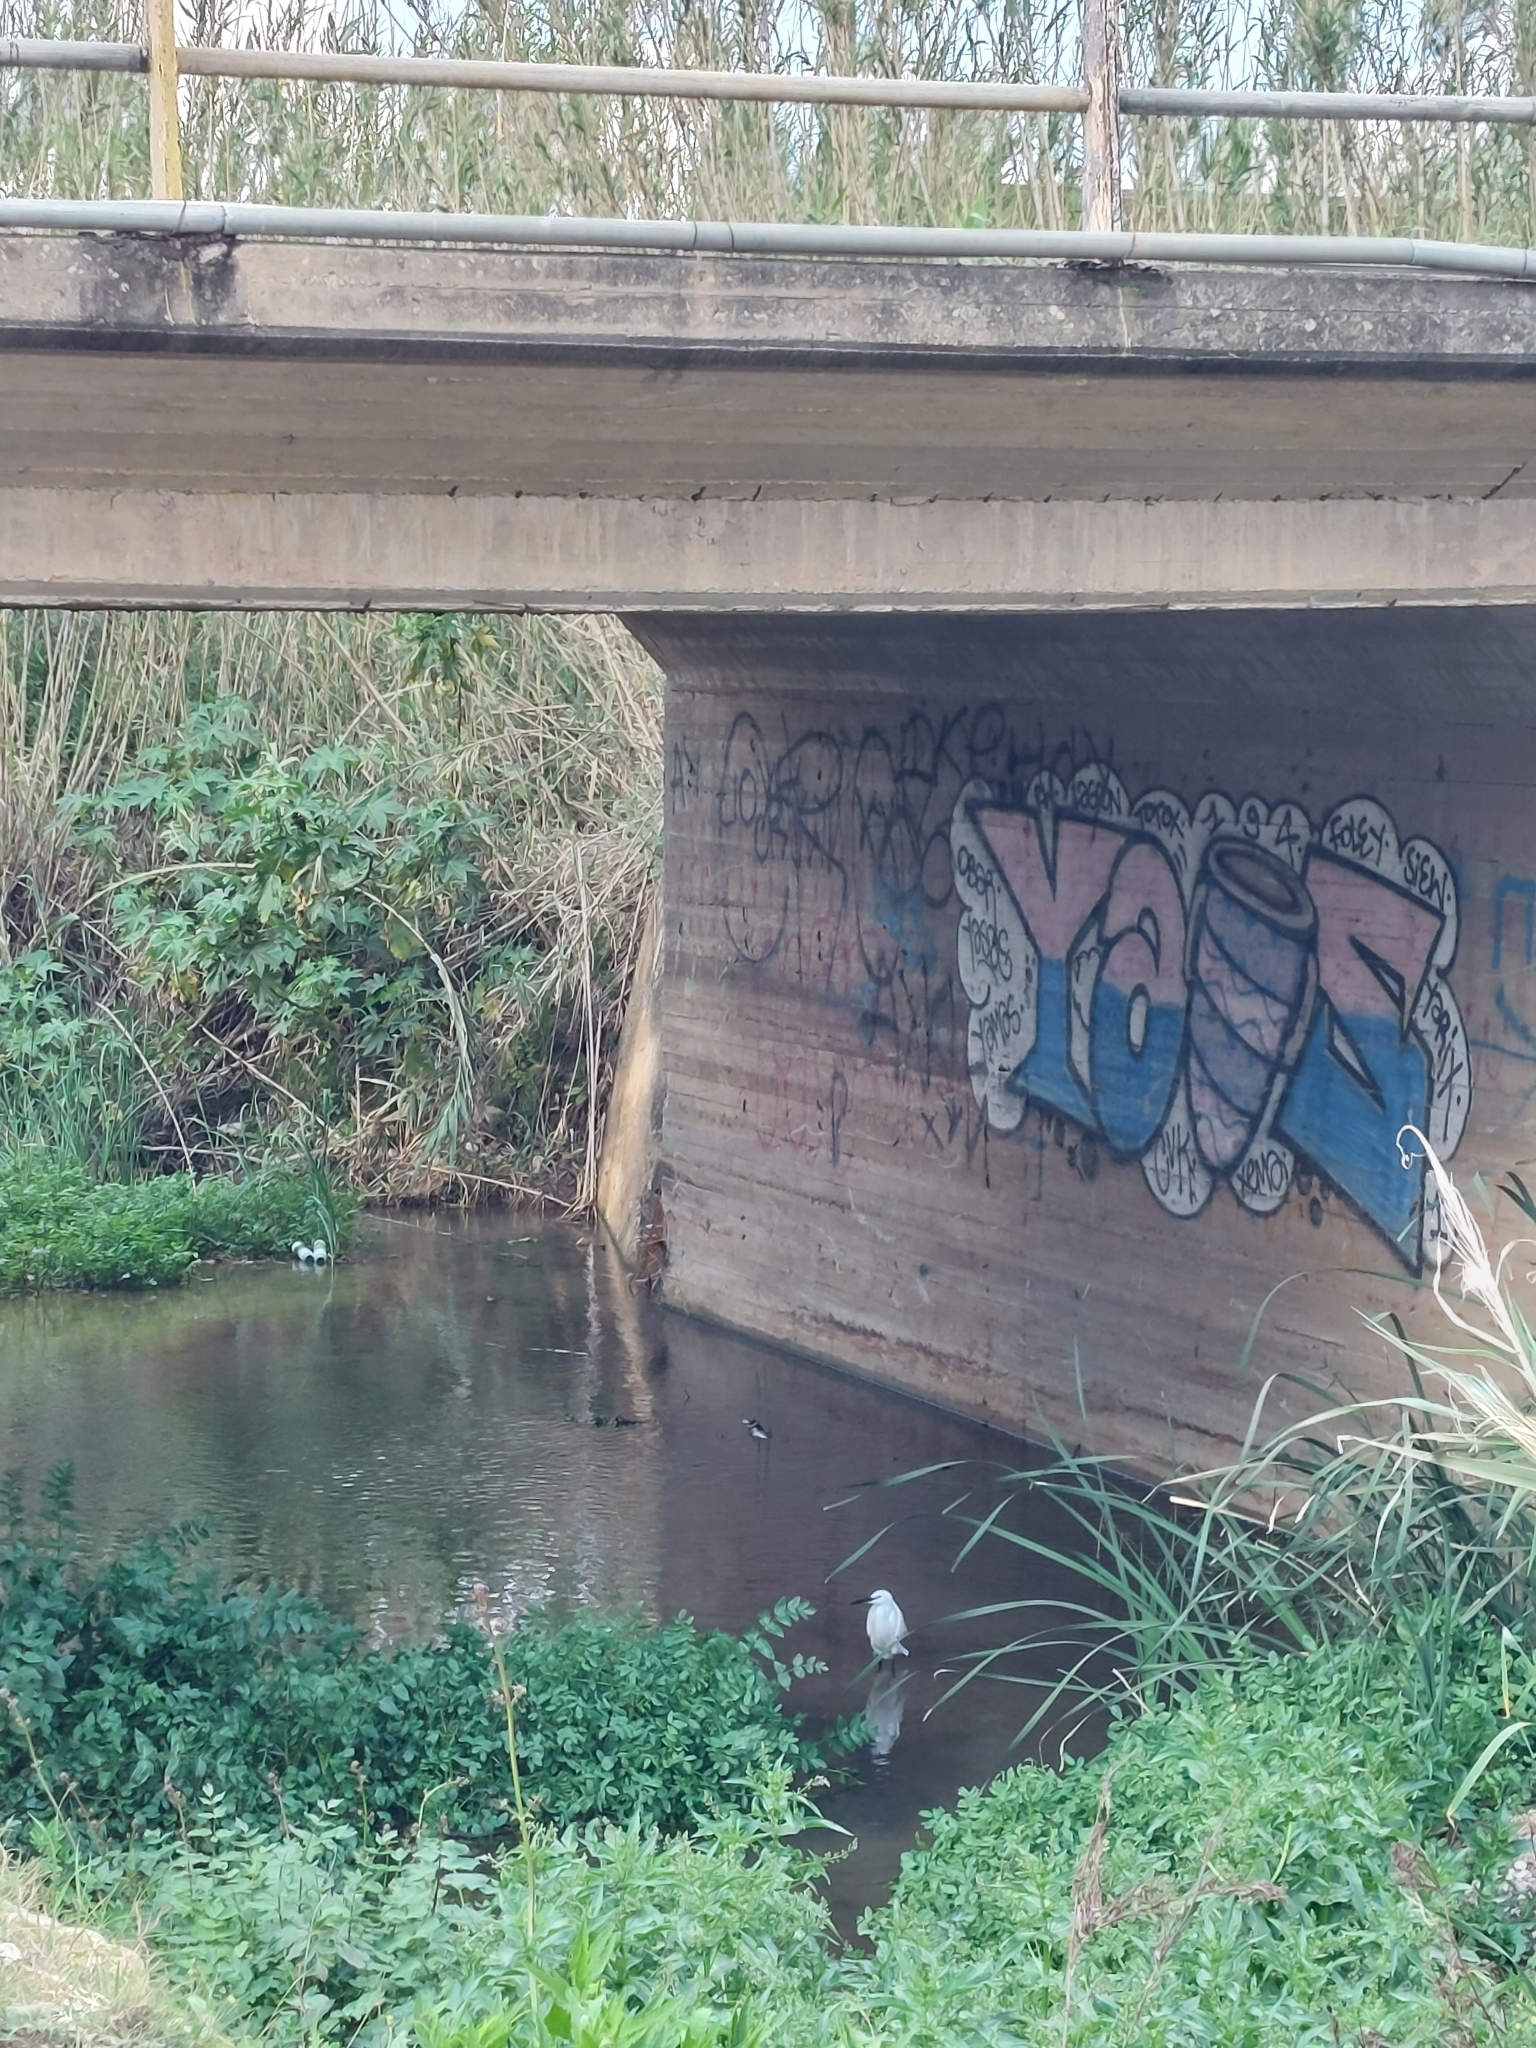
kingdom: Animalia
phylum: Chordata
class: Aves
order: Pelecaniformes
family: Ardeidae
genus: Egretta
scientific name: Egretta garzetta
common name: Little egret
